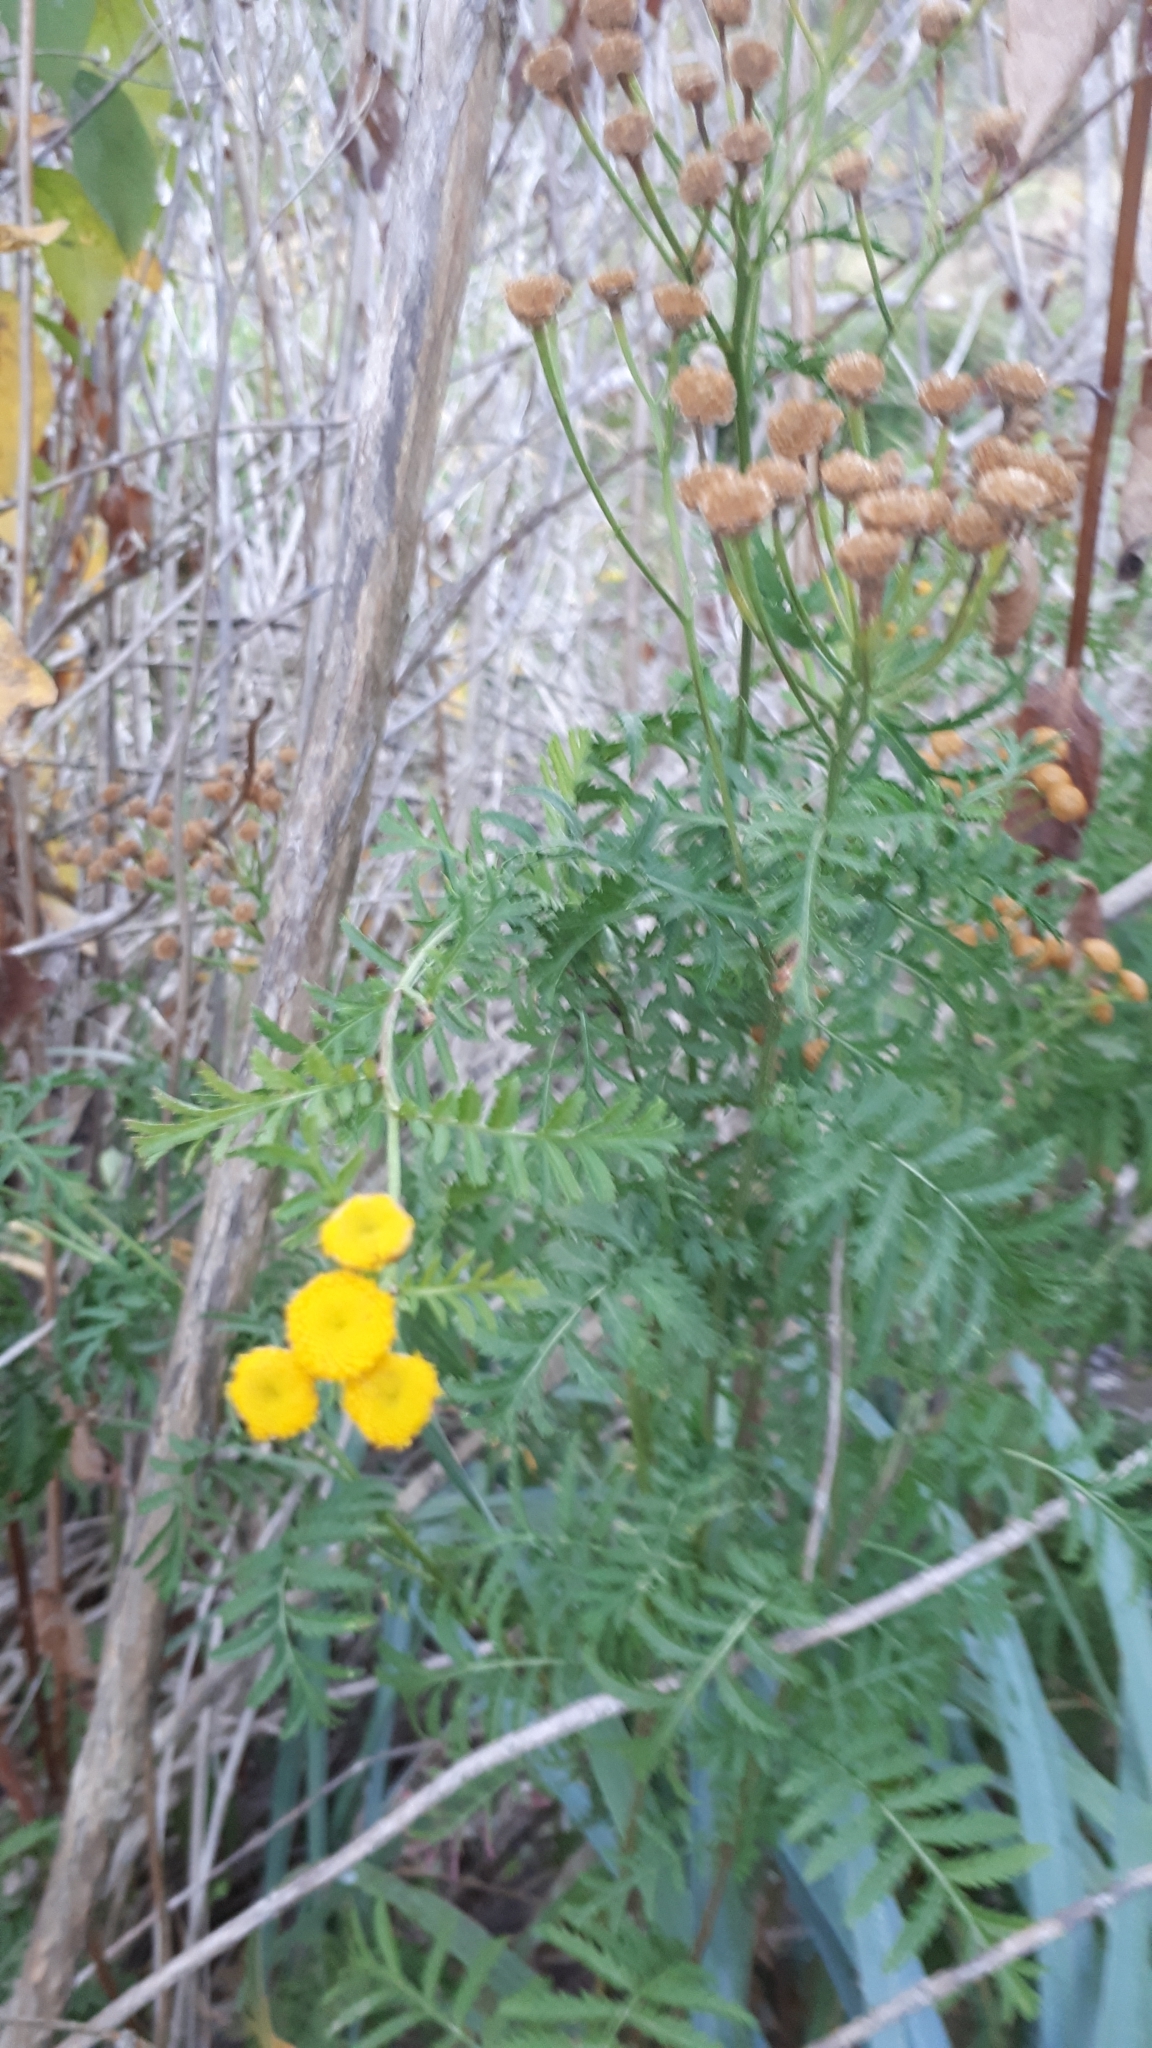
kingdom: Plantae
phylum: Tracheophyta
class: Magnoliopsida
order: Asterales
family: Asteraceae
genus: Tanacetum
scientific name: Tanacetum vulgare
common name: Common tansy
